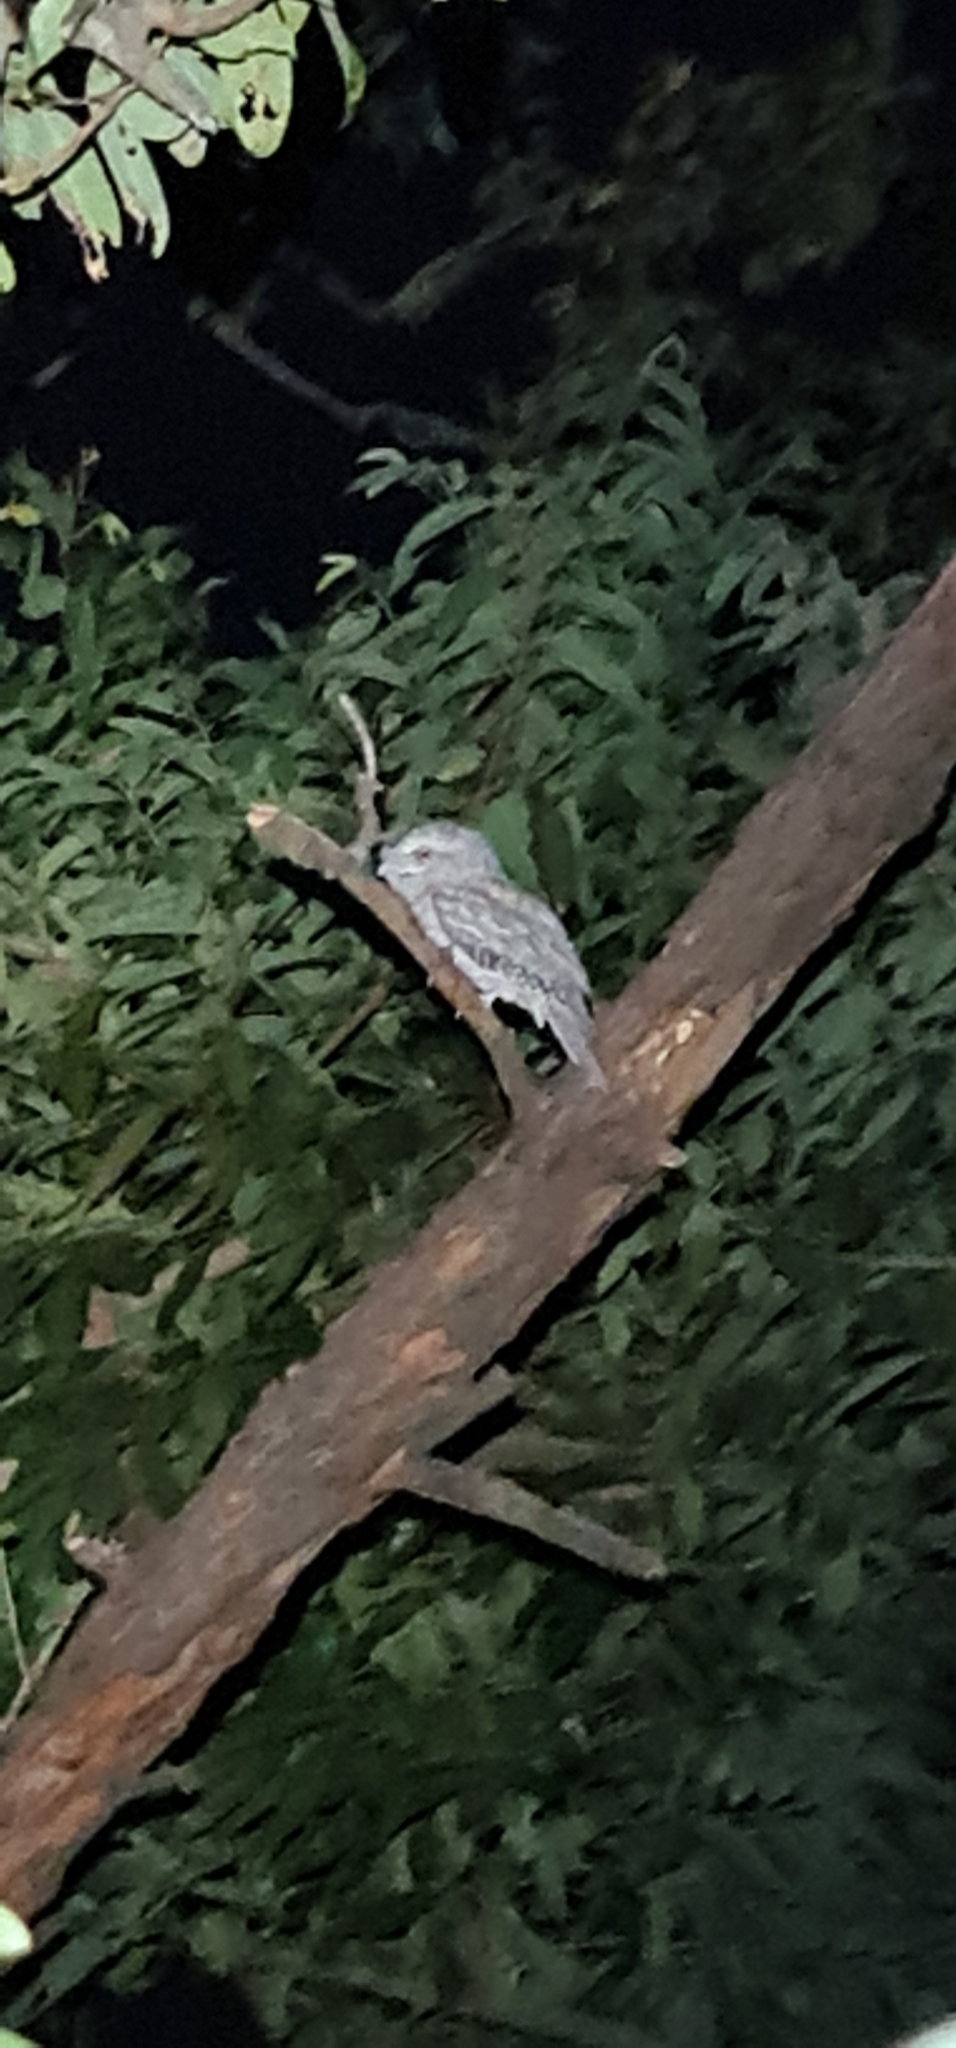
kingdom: Animalia
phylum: Chordata
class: Aves
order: Caprimulgiformes
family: Podargidae
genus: Podargus
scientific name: Podargus strigoides
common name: Tawny frogmouth
